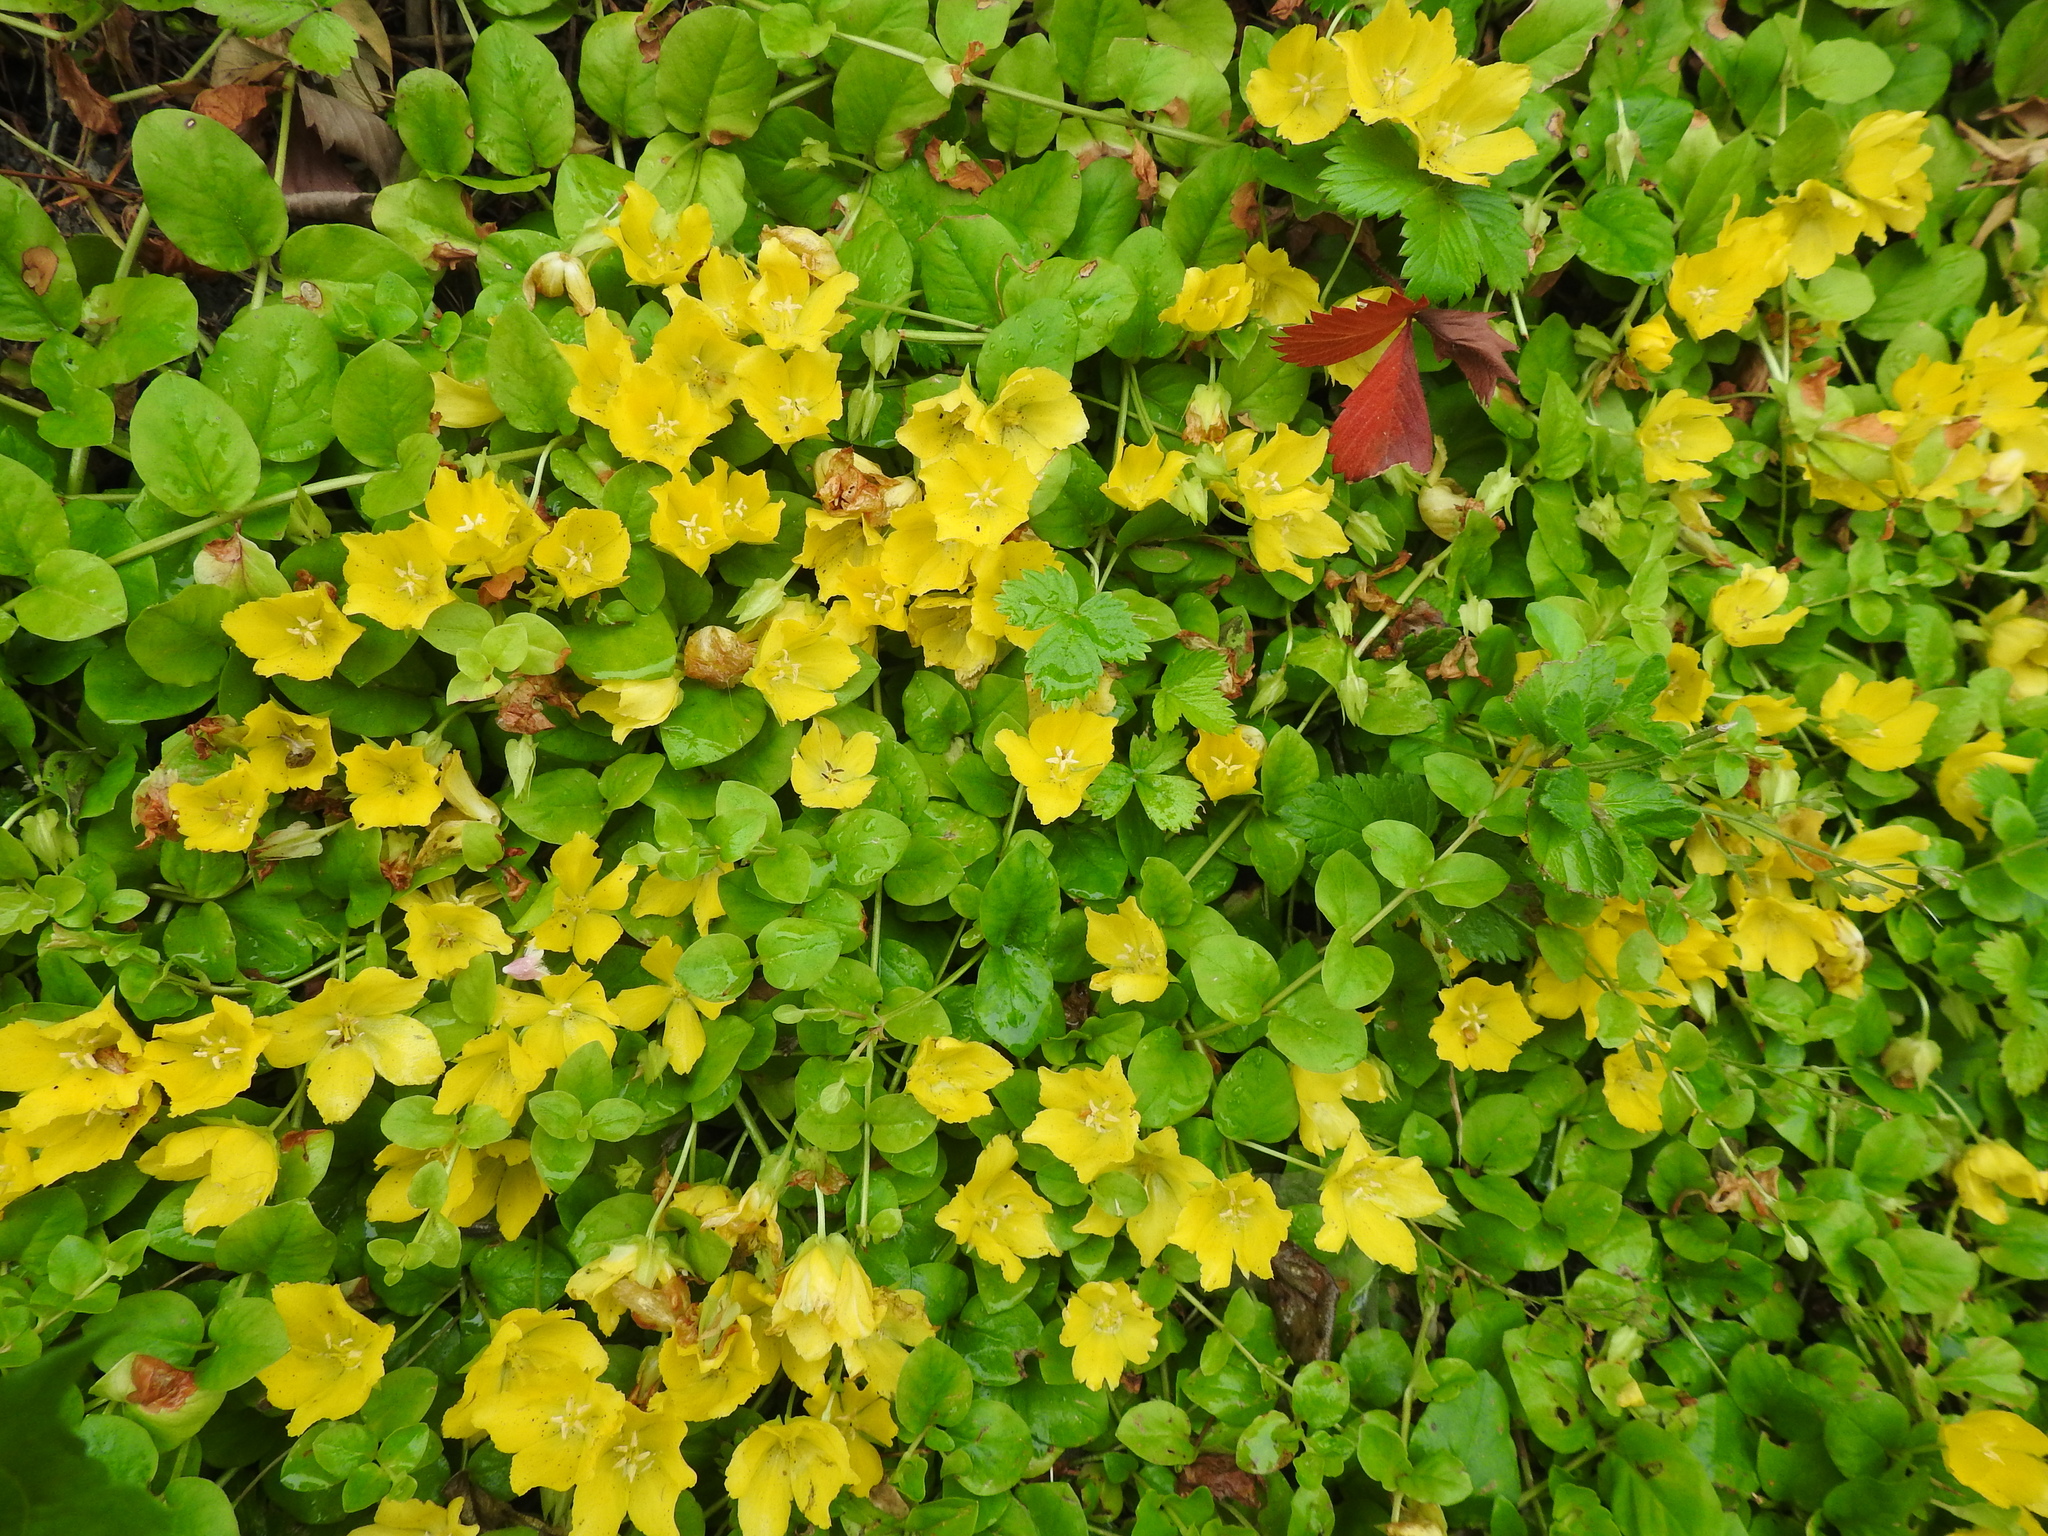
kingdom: Plantae
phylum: Tracheophyta
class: Magnoliopsida
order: Ericales
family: Primulaceae
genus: Lysimachia
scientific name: Lysimachia nummularia
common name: Moneywort
